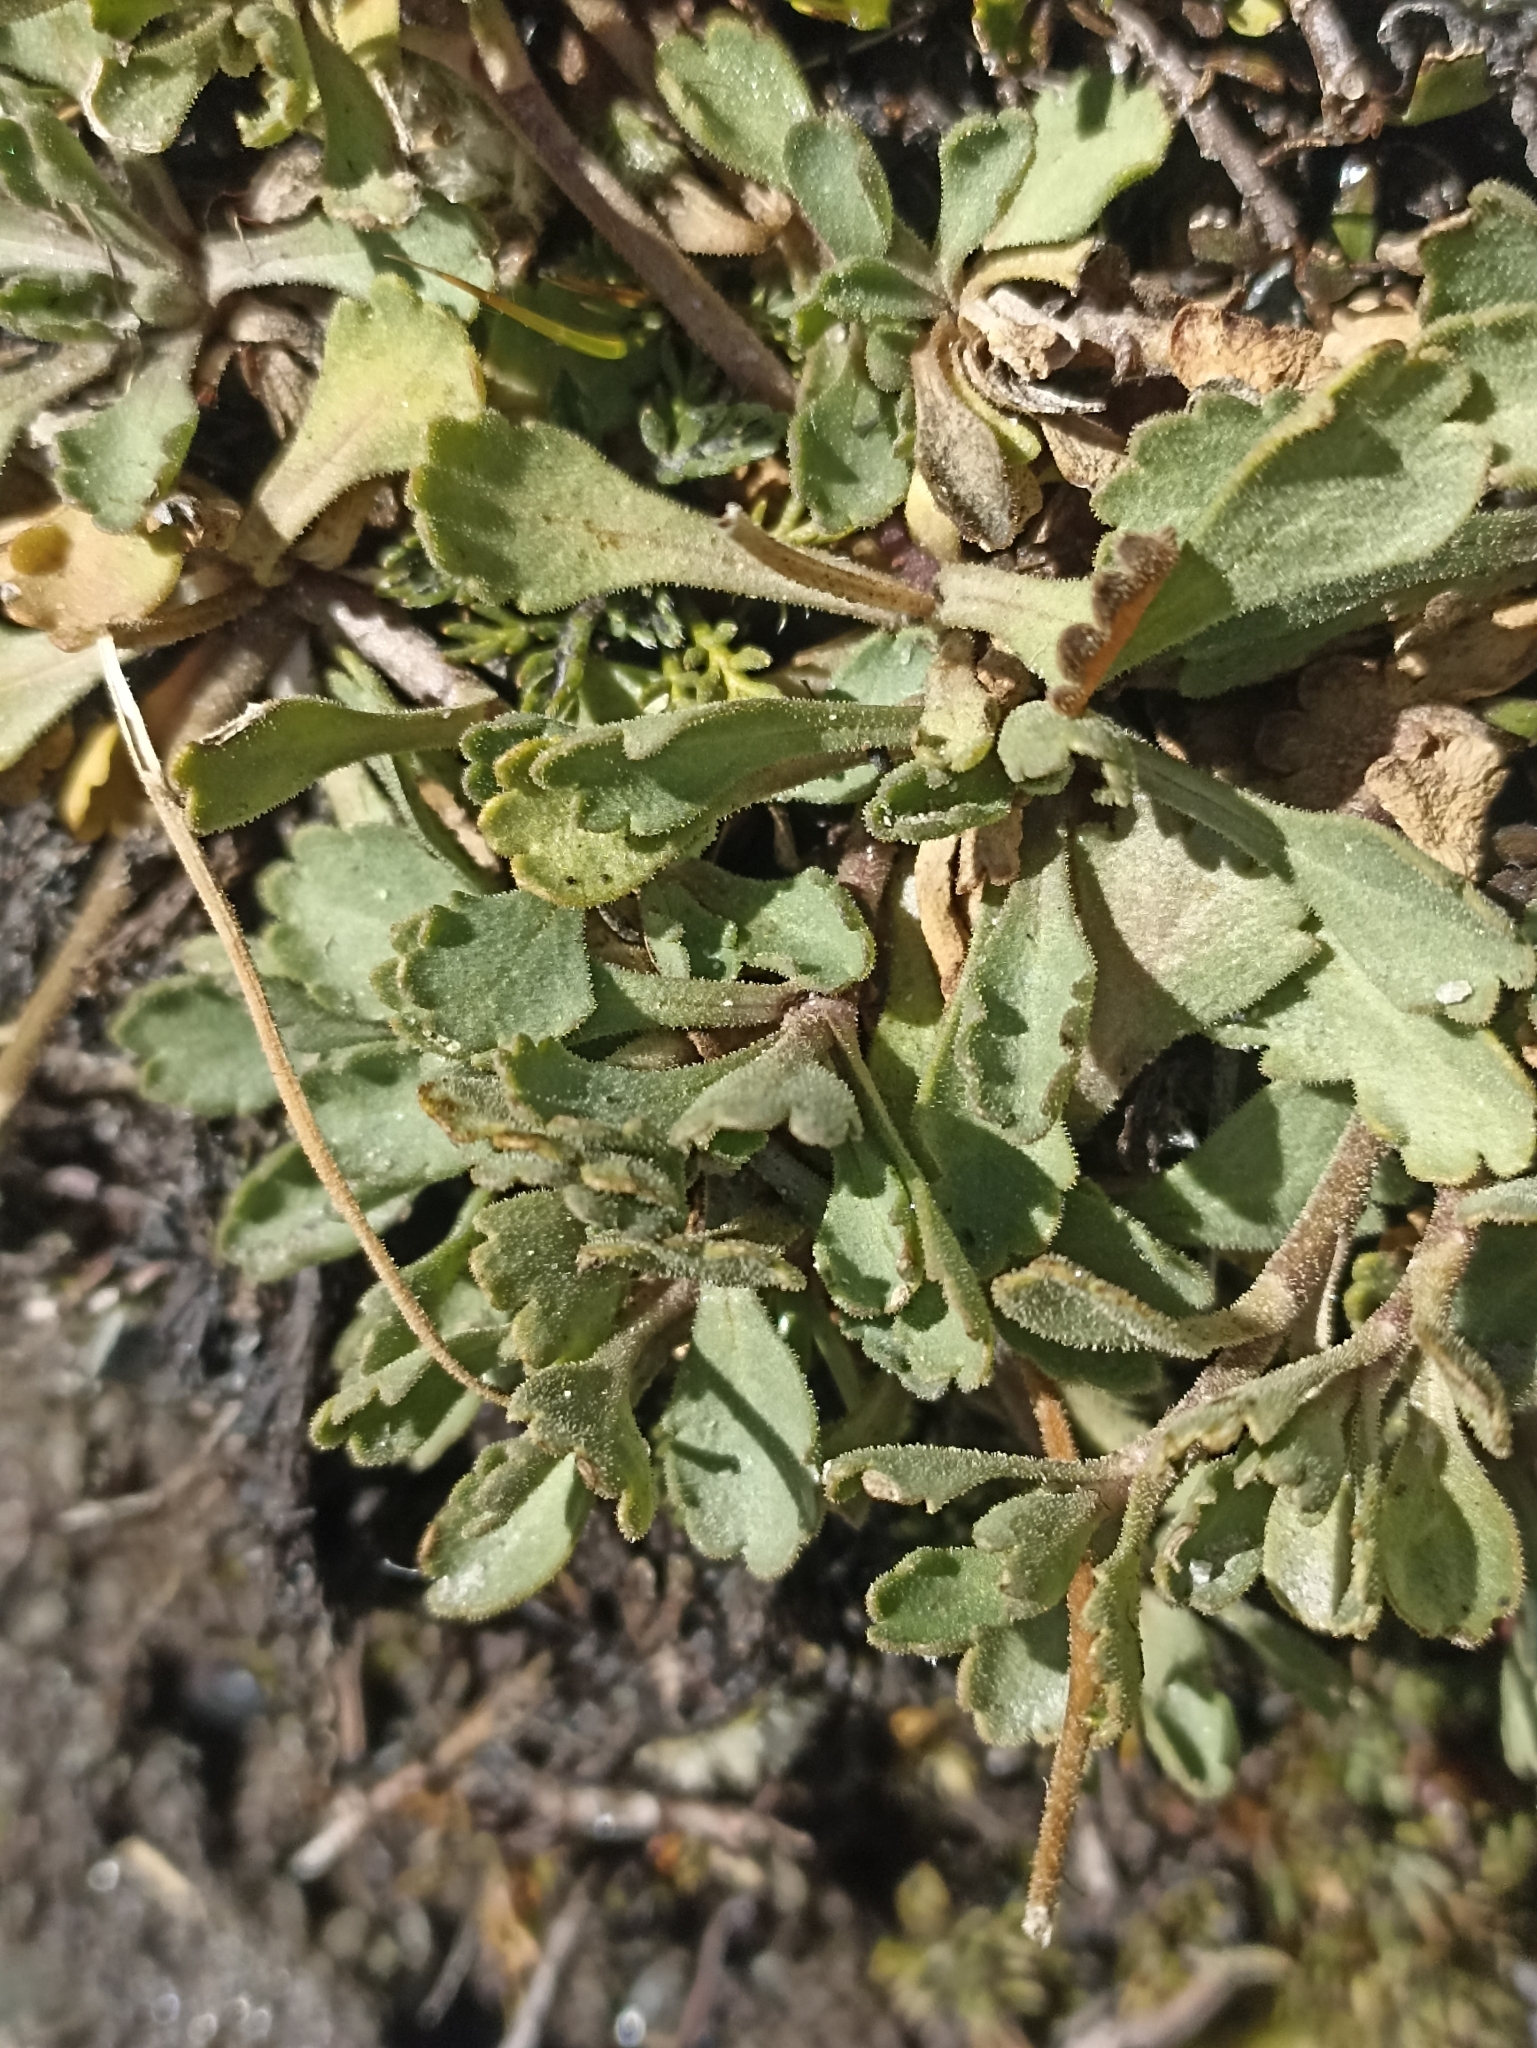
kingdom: Plantae
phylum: Tracheophyta
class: Magnoliopsida
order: Asterales
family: Asteraceae
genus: Brachyscome
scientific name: Brachyscome montana
